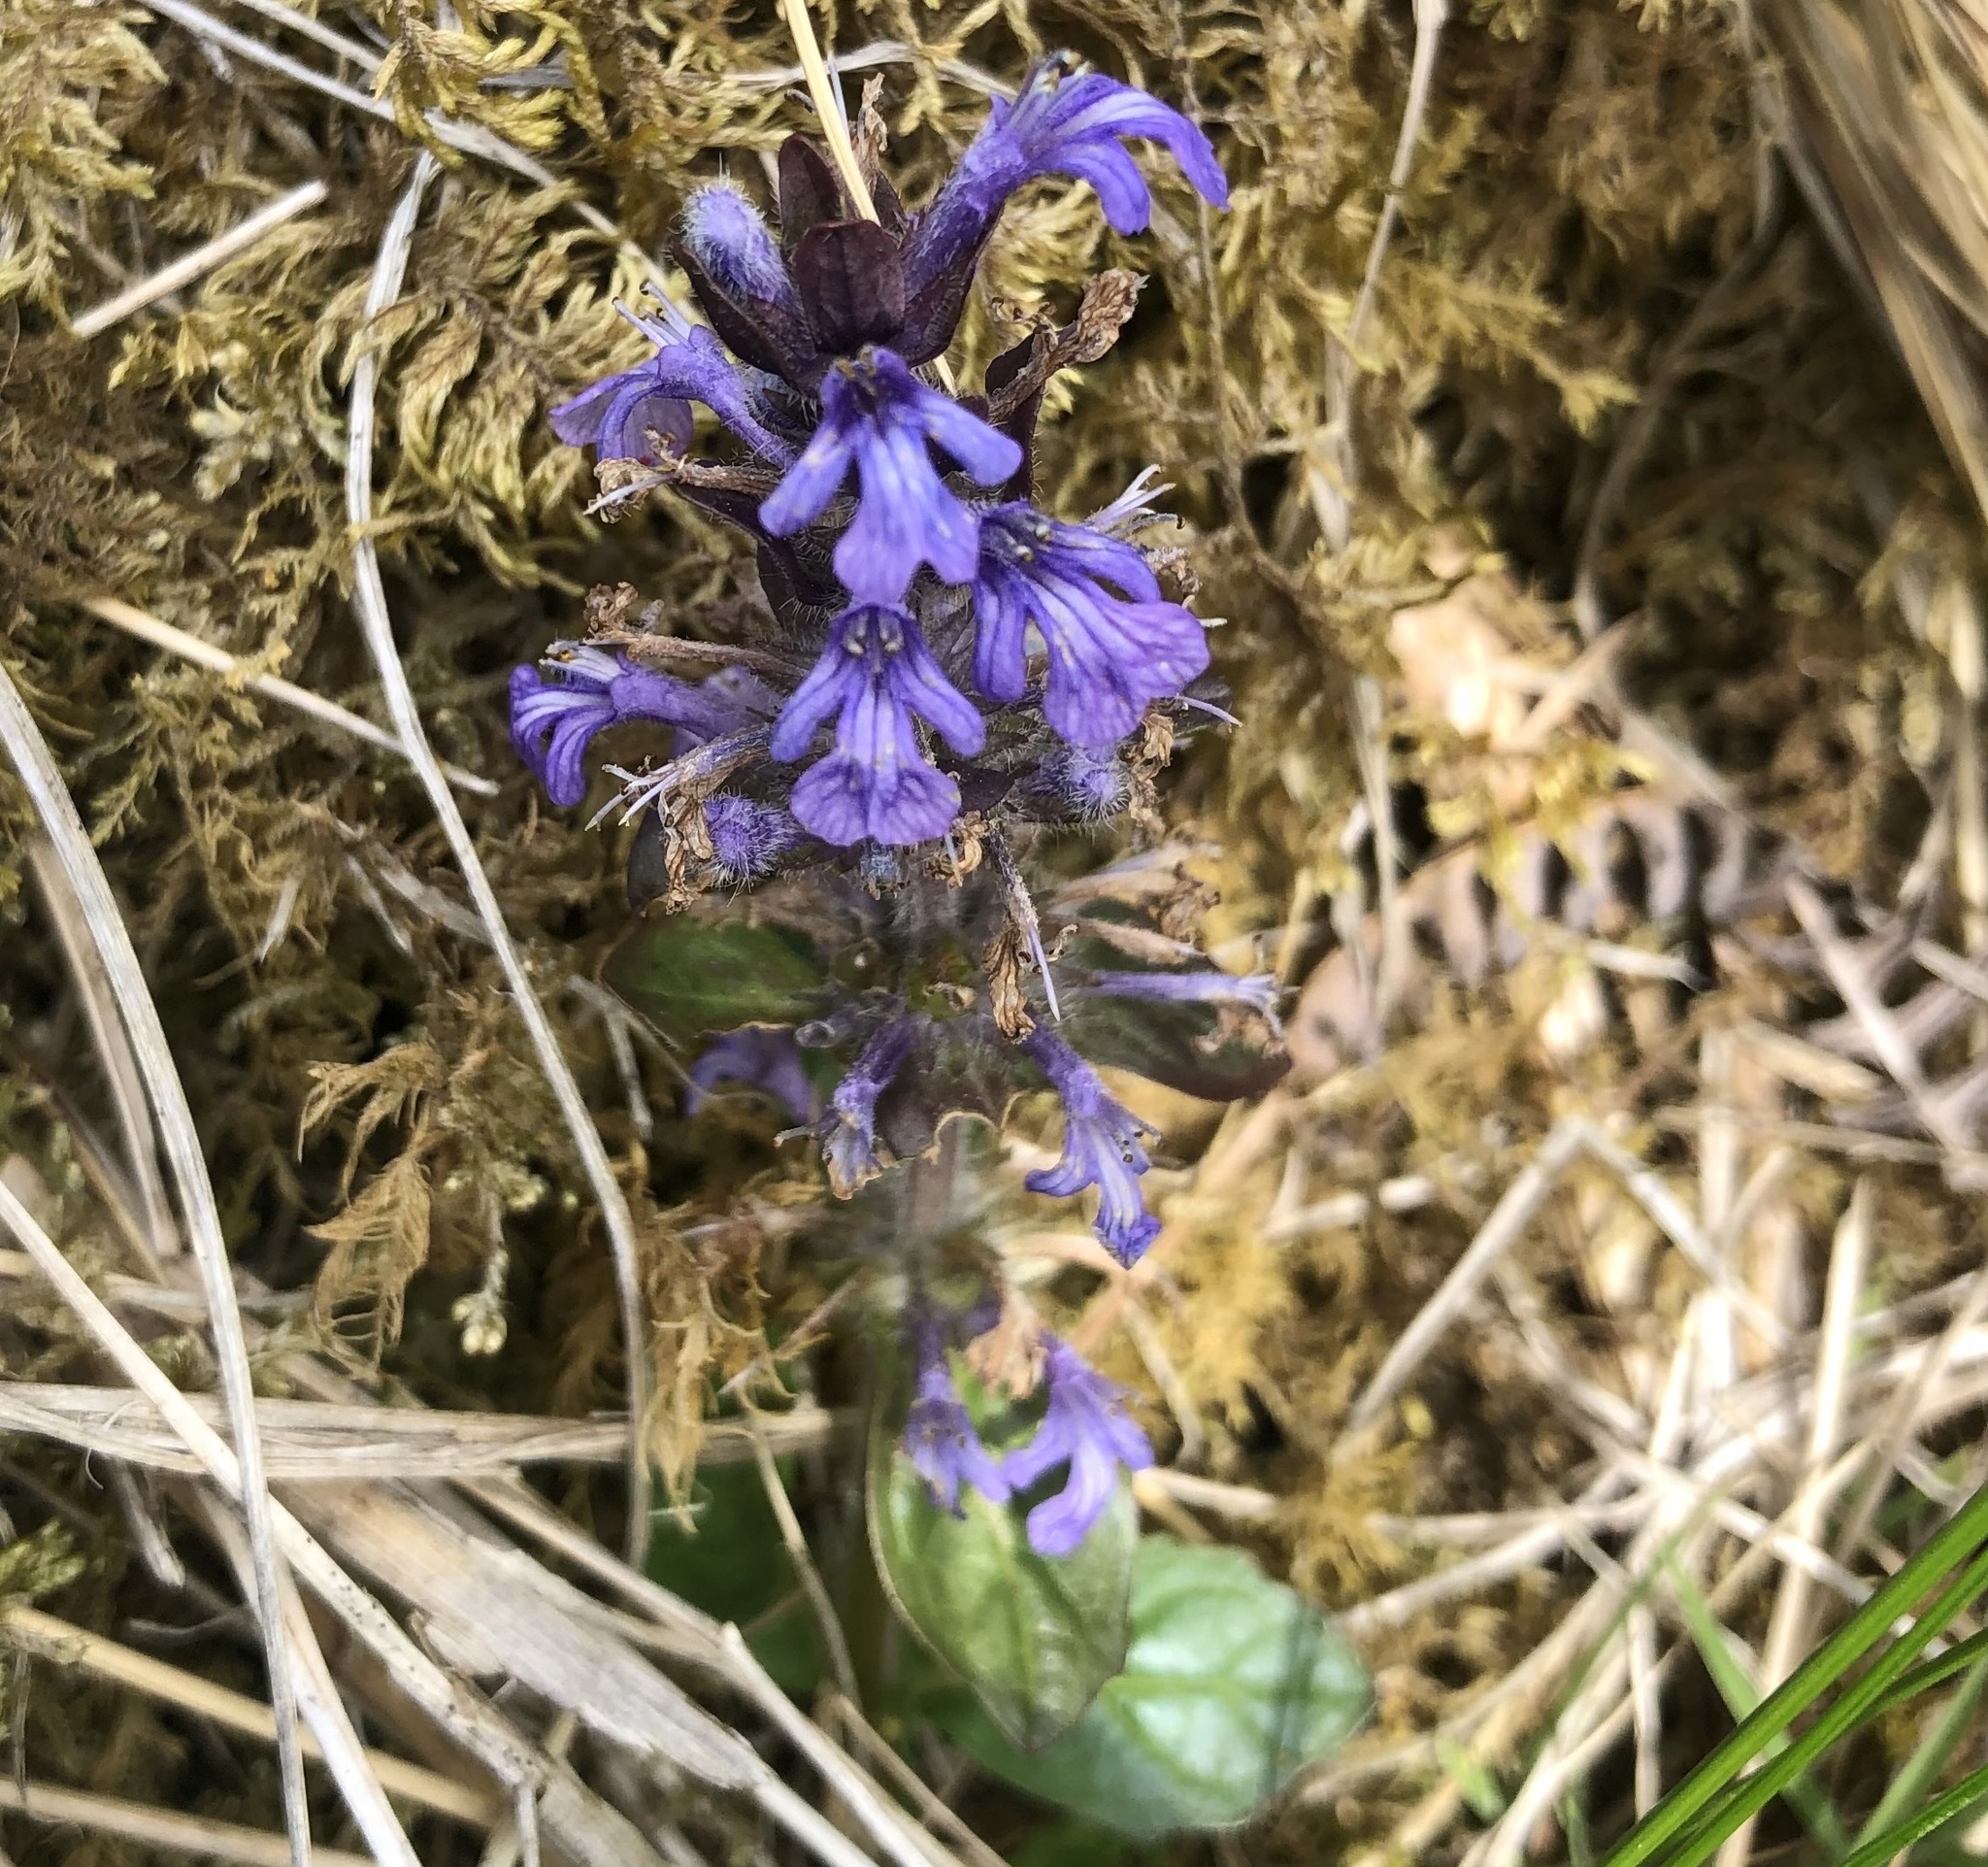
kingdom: Plantae
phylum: Tracheophyta
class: Magnoliopsida
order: Lamiales
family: Lamiaceae
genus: Ajuga
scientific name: Ajuga reptans
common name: Bugle
